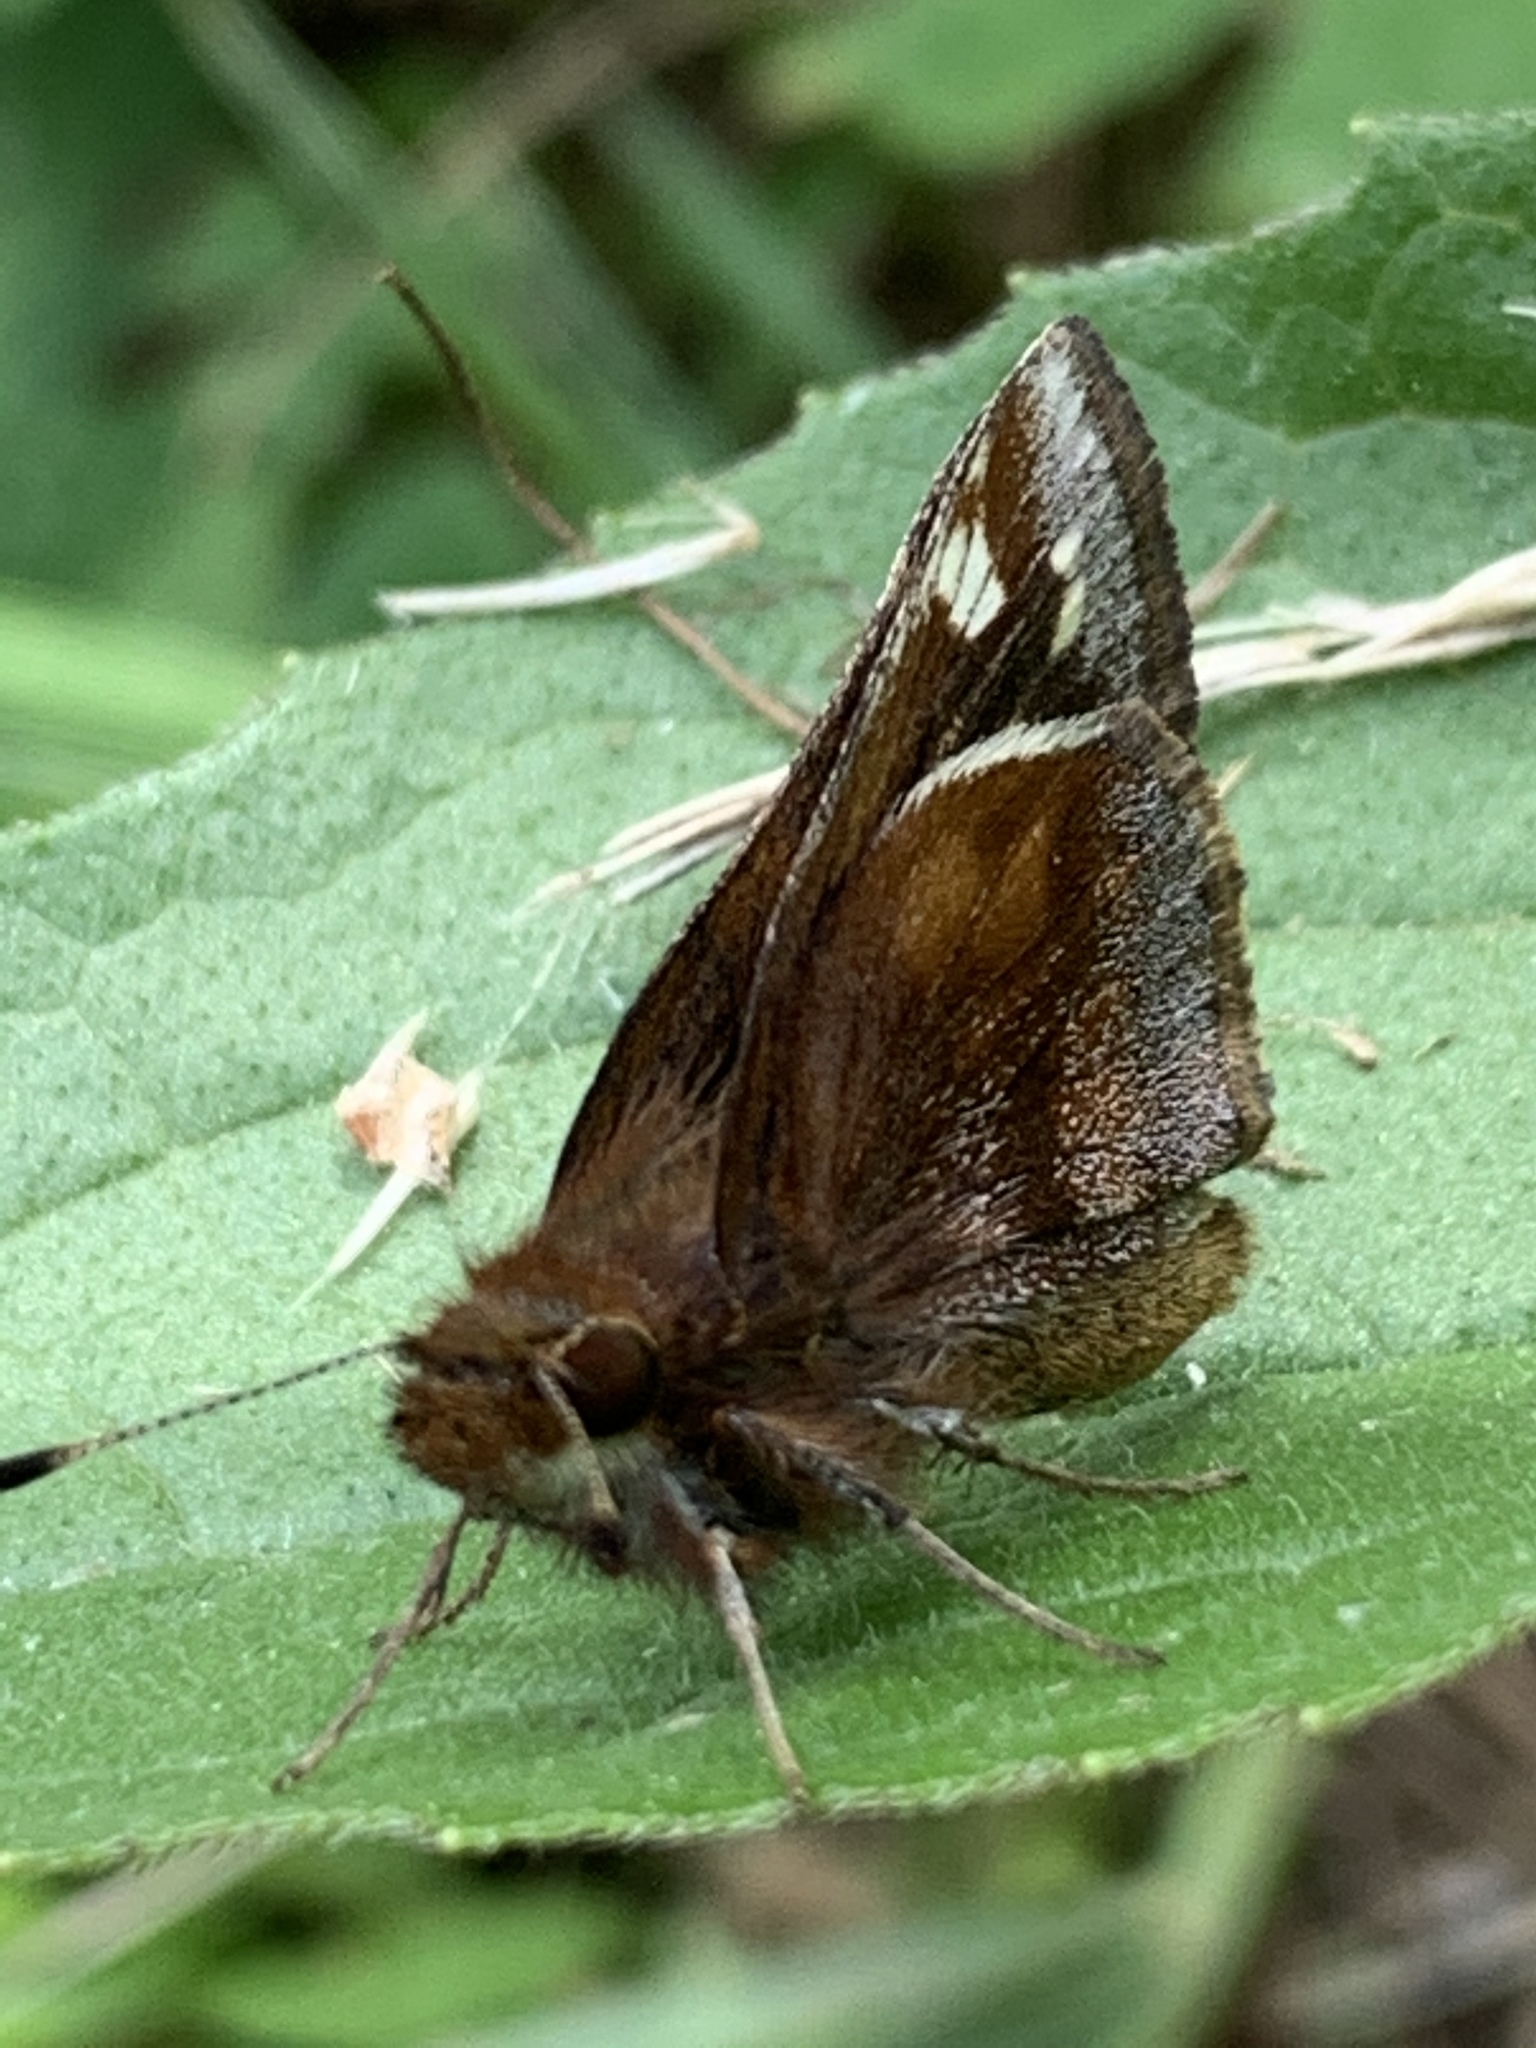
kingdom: Animalia
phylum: Arthropoda
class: Insecta
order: Lepidoptera
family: Hesperiidae
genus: Lon
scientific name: Lon zabulon
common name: Zabulon skipper
